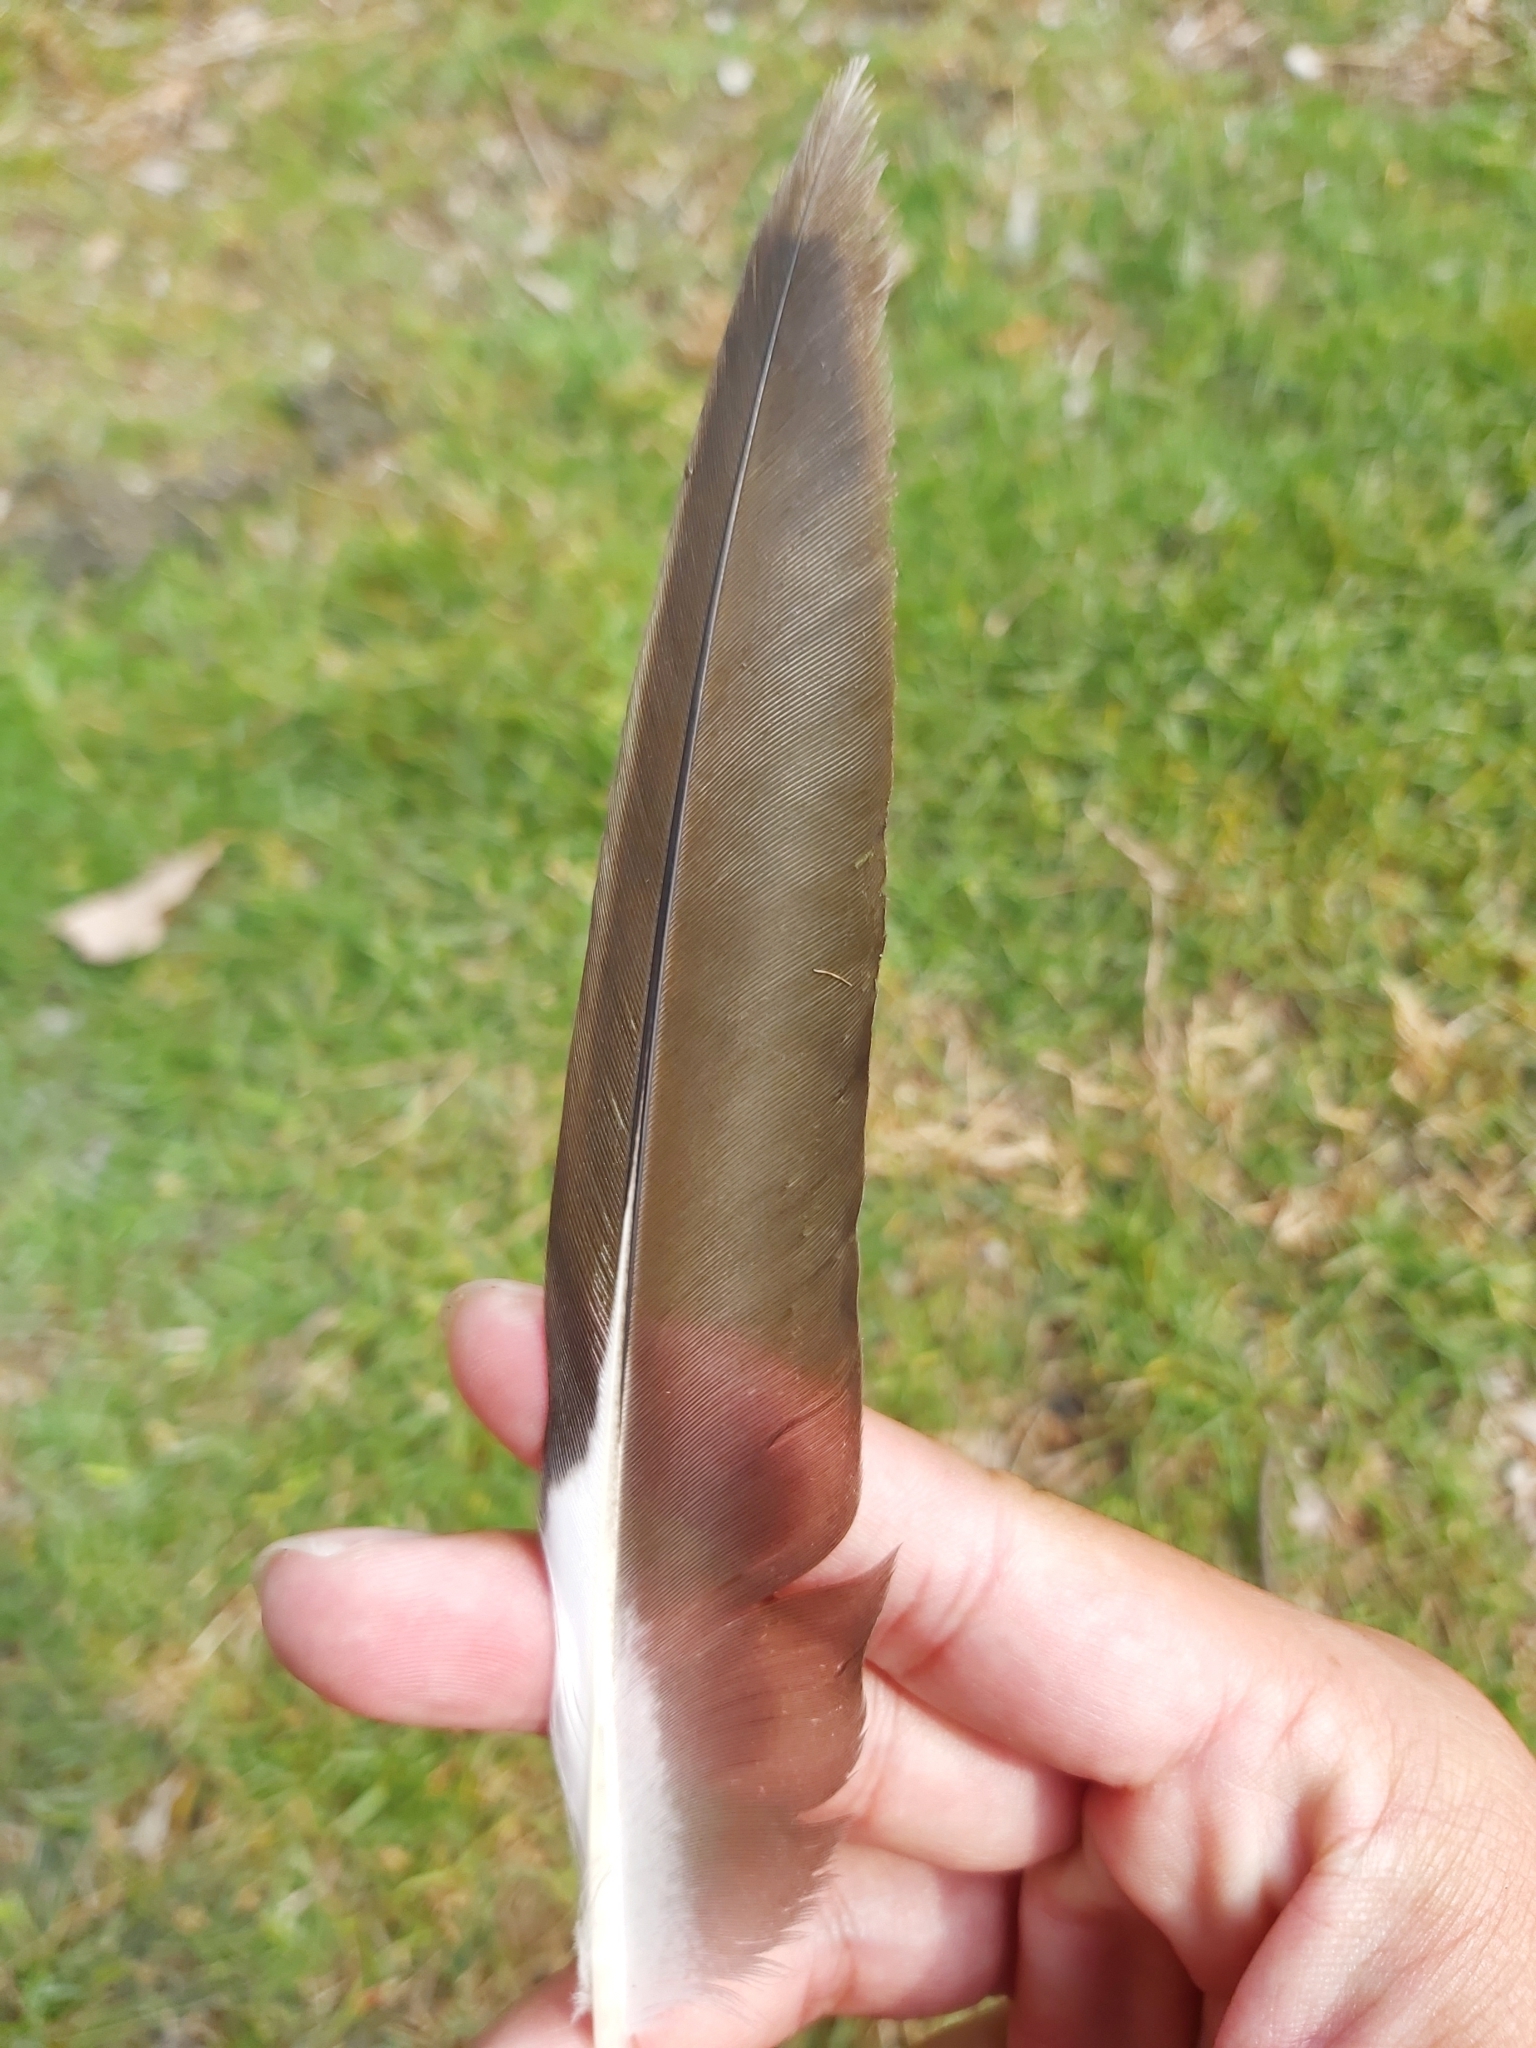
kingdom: Animalia
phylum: Chordata
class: Aves
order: Charadriiformes
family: Laridae
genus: Chroicocephalus
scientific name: Chroicocephalus novaehollandiae
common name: Silver gull
